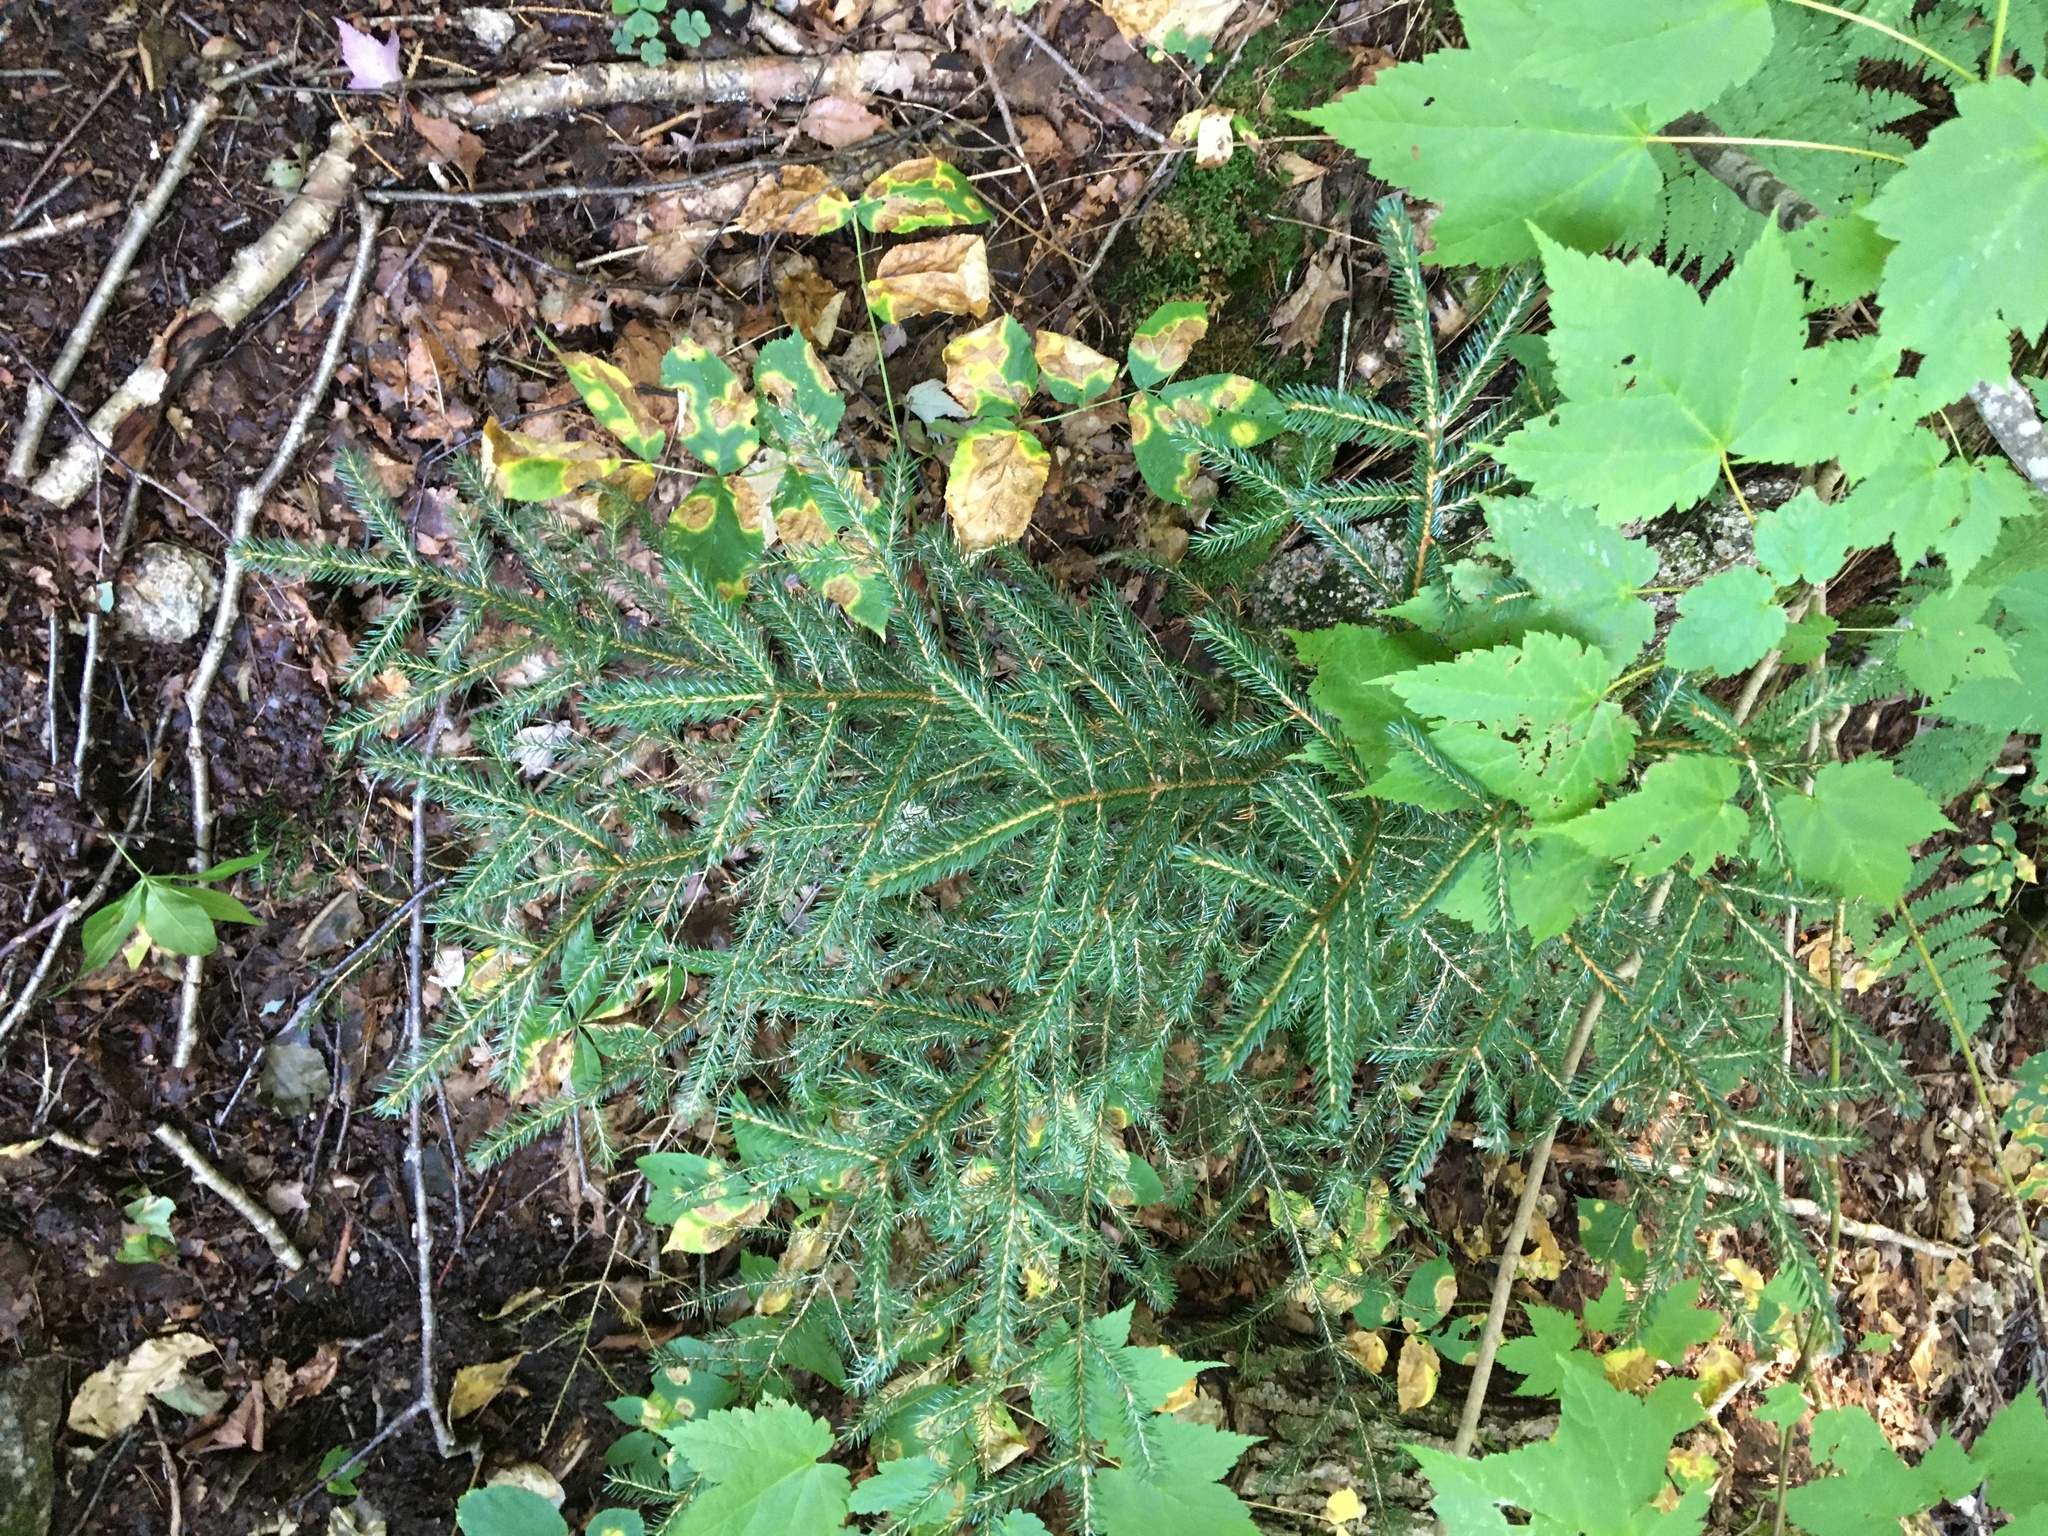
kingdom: Plantae
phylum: Tracheophyta
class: Pinopsida
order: Pinales
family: Pinaceae
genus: Picea
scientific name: Picea abies
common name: Norway spruce
